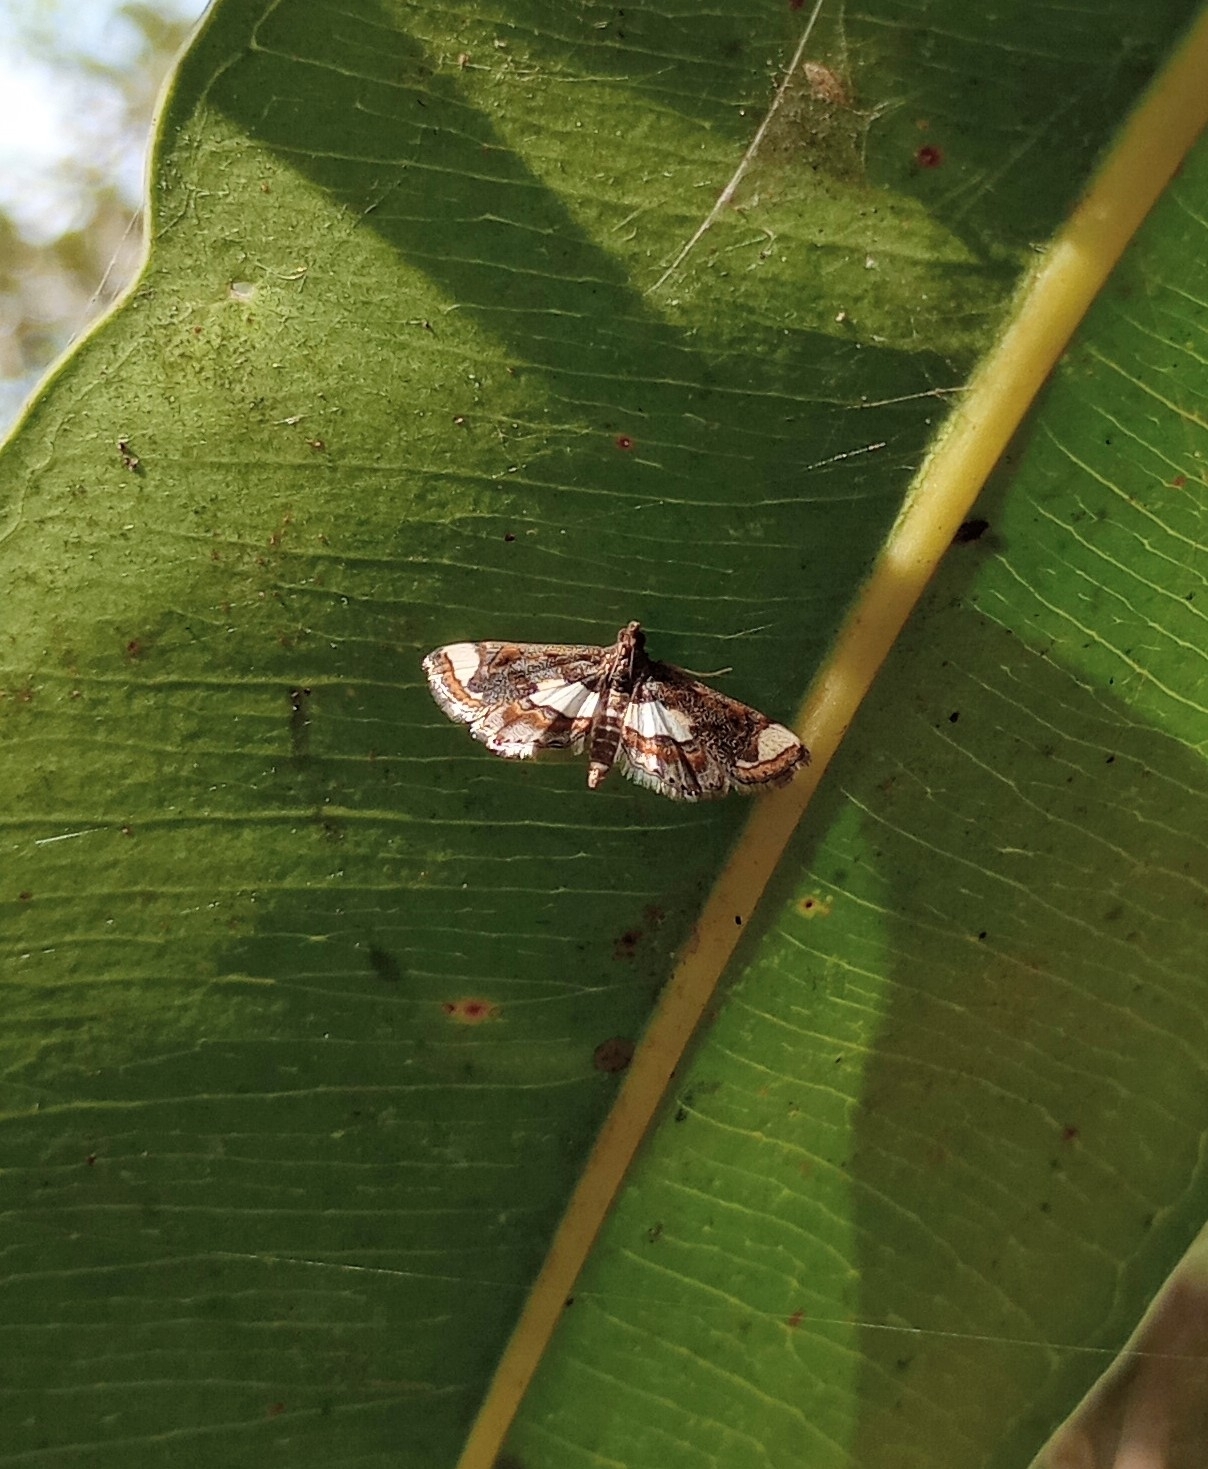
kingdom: Animalia
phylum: Arthropoda
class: Insecta
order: Lepidoptera
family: Crambidae
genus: Agassiziella
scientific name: Agassiziella picalis
